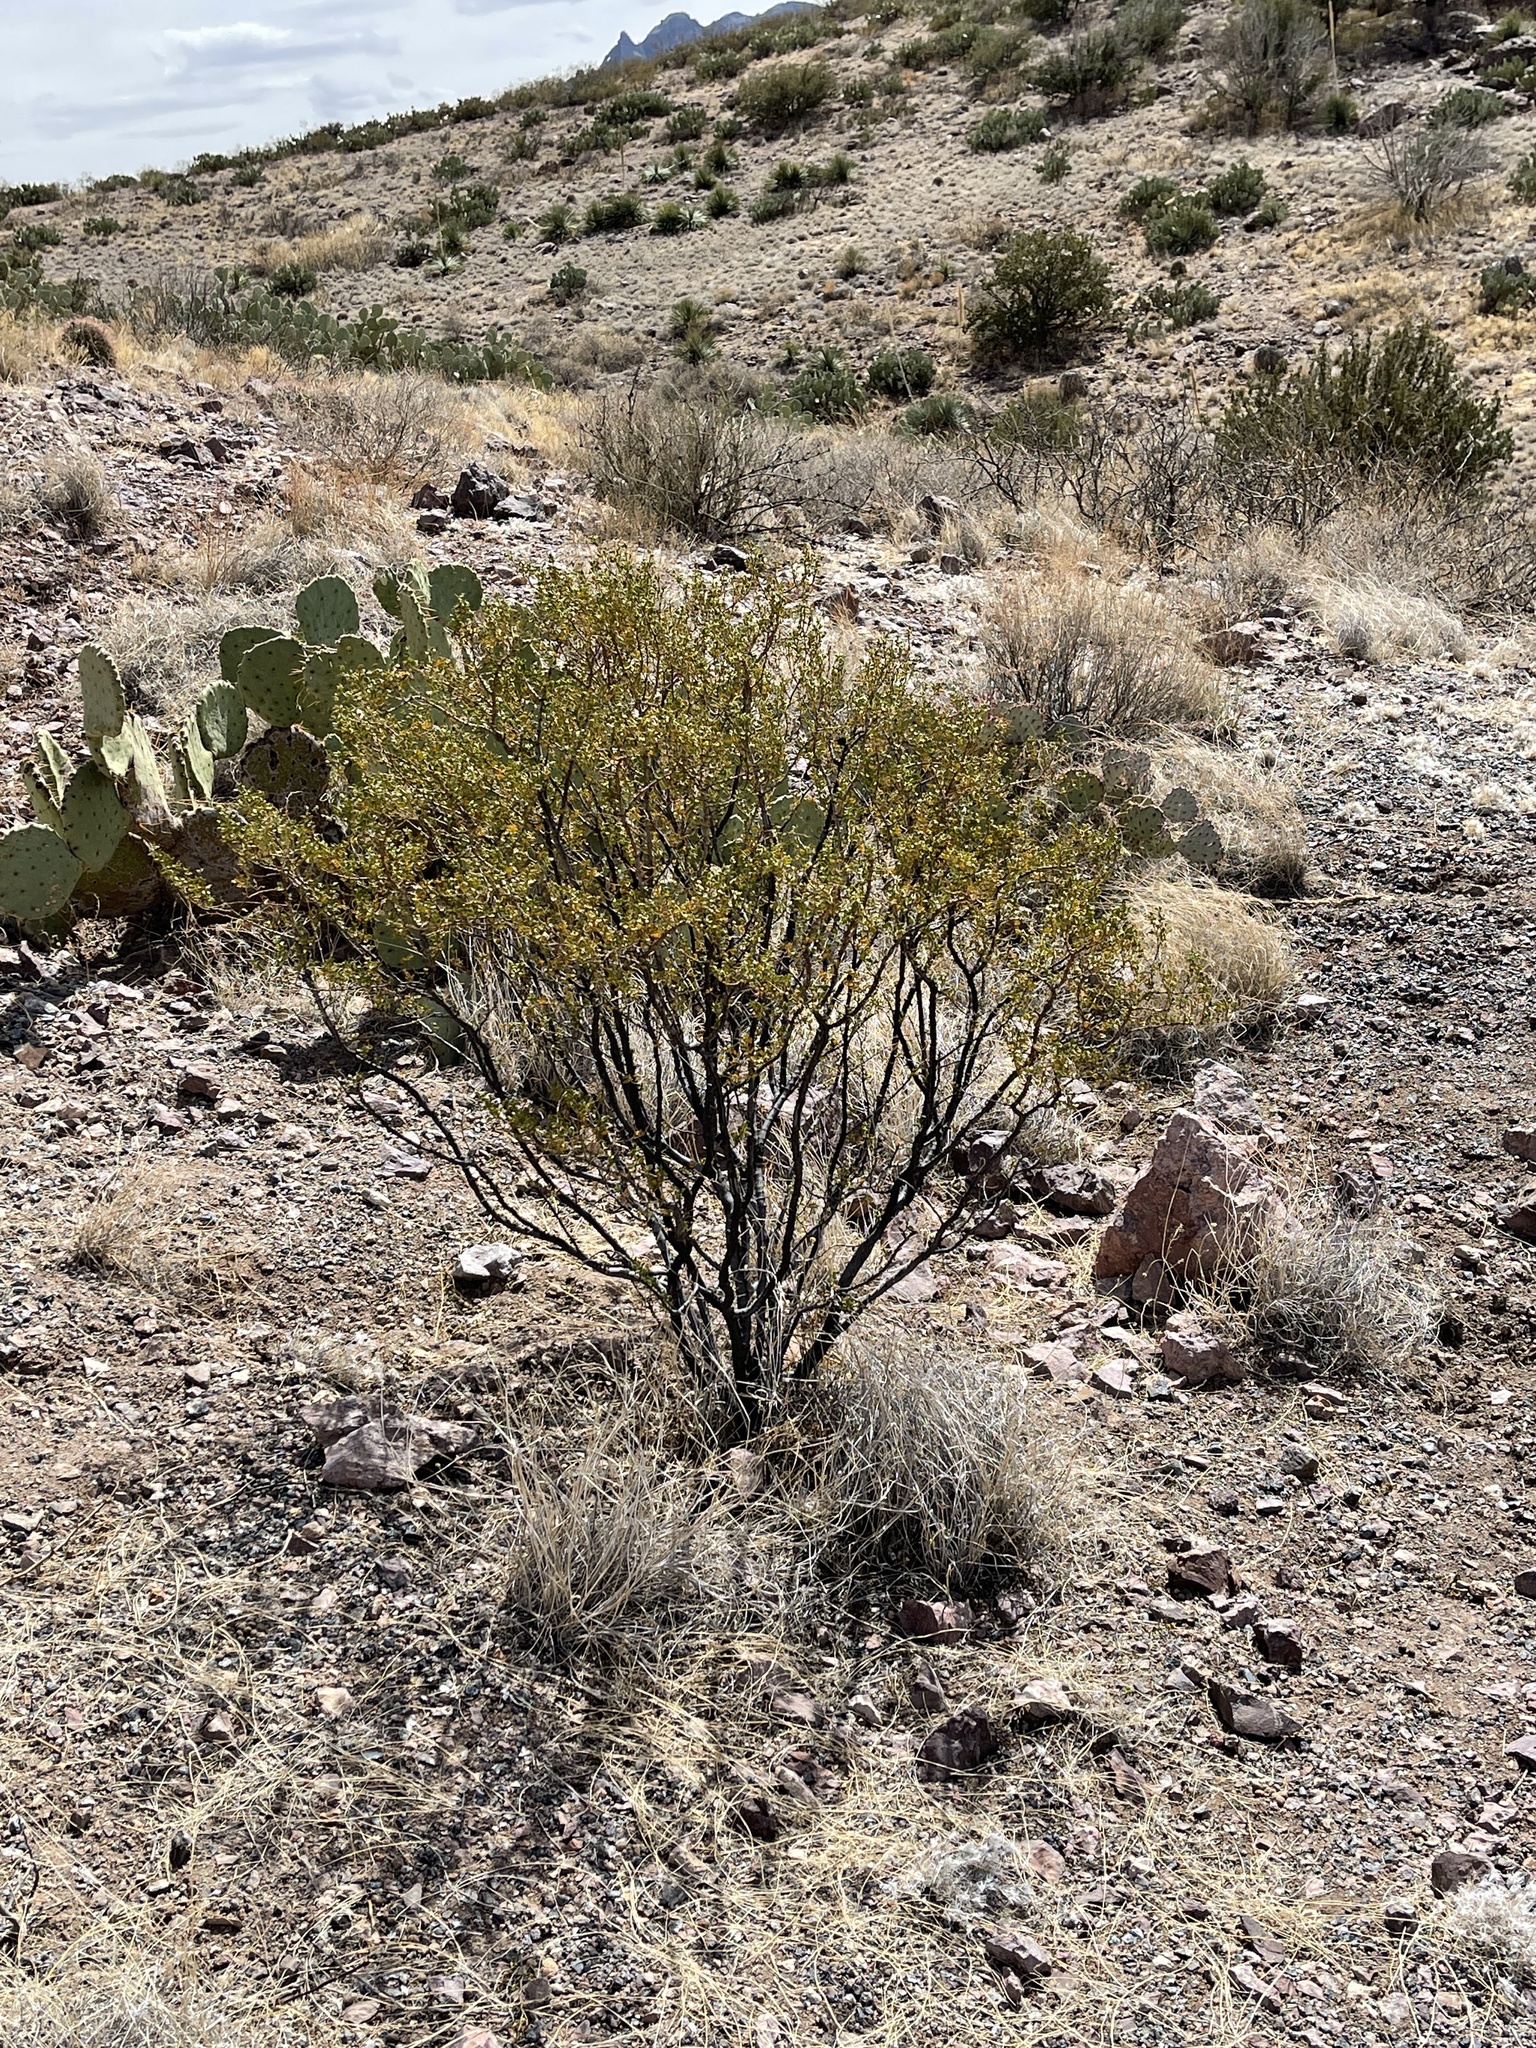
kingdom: Plantae
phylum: Tracheophyta
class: Magnoliopsida
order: Zygophyllales
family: Zygophyllaceae
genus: Larrea
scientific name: Larrea tridentata
